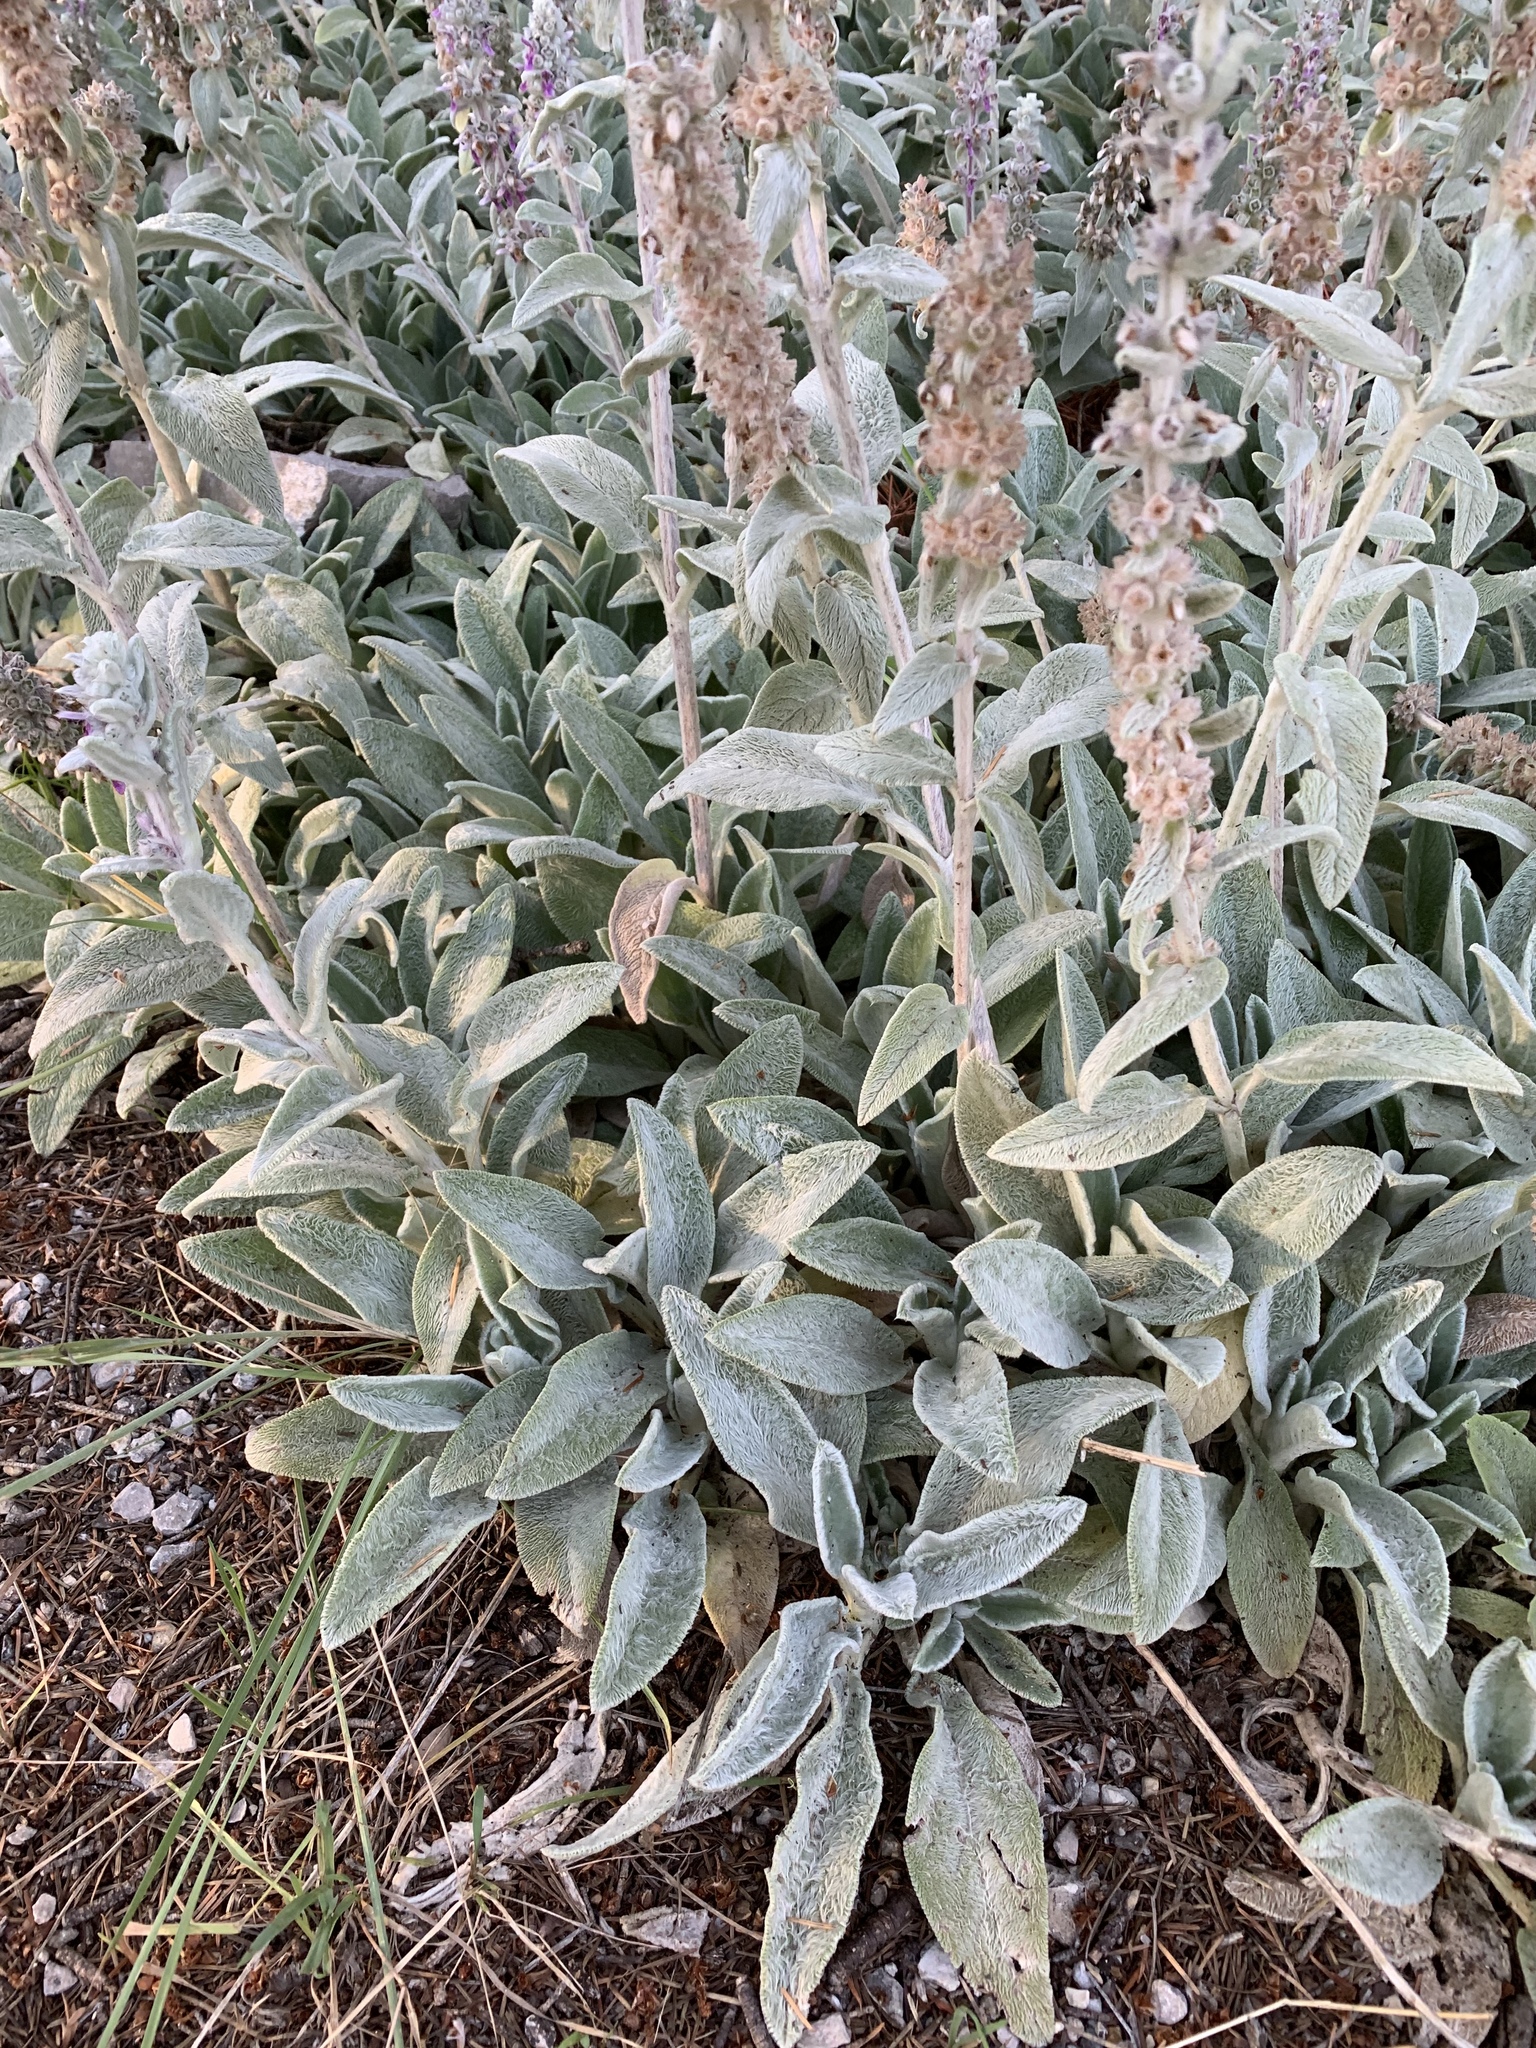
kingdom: Plantae
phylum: Tracheophyta
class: Magnoliopsida
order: Lamiales
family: Lamiaceae
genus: Stachys
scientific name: Stachys byzantina
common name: Lamb's-ear
